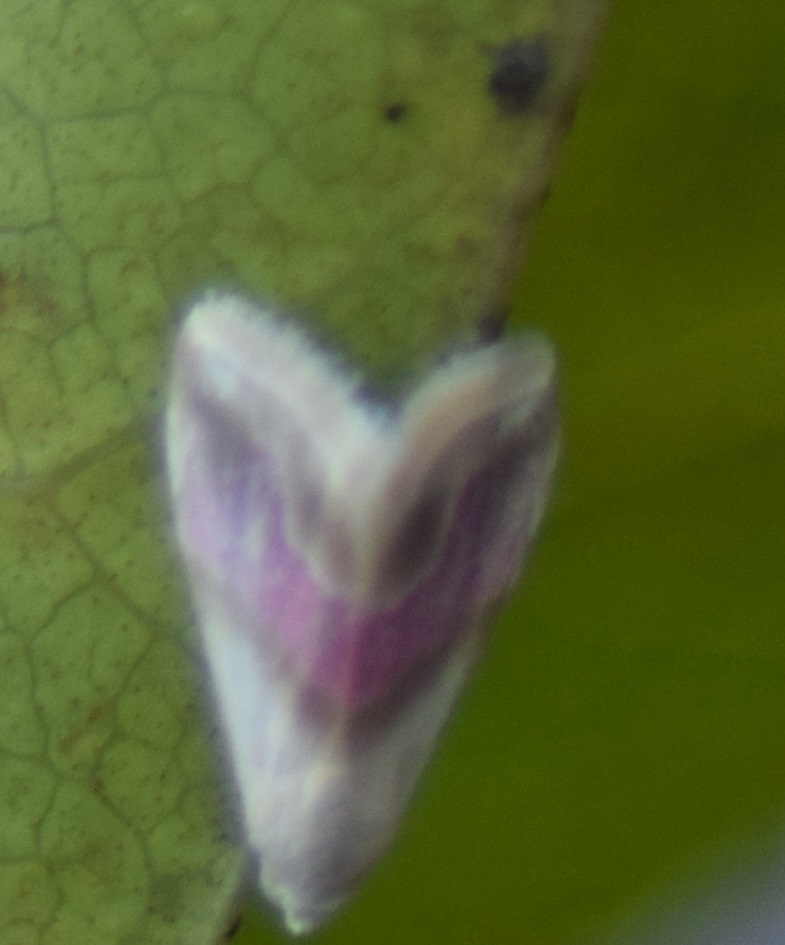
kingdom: Animalia
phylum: Arthropoda
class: Insecta
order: Lepidoptera
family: Noctuidae
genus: Eublemma
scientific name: Eublemma roseana
